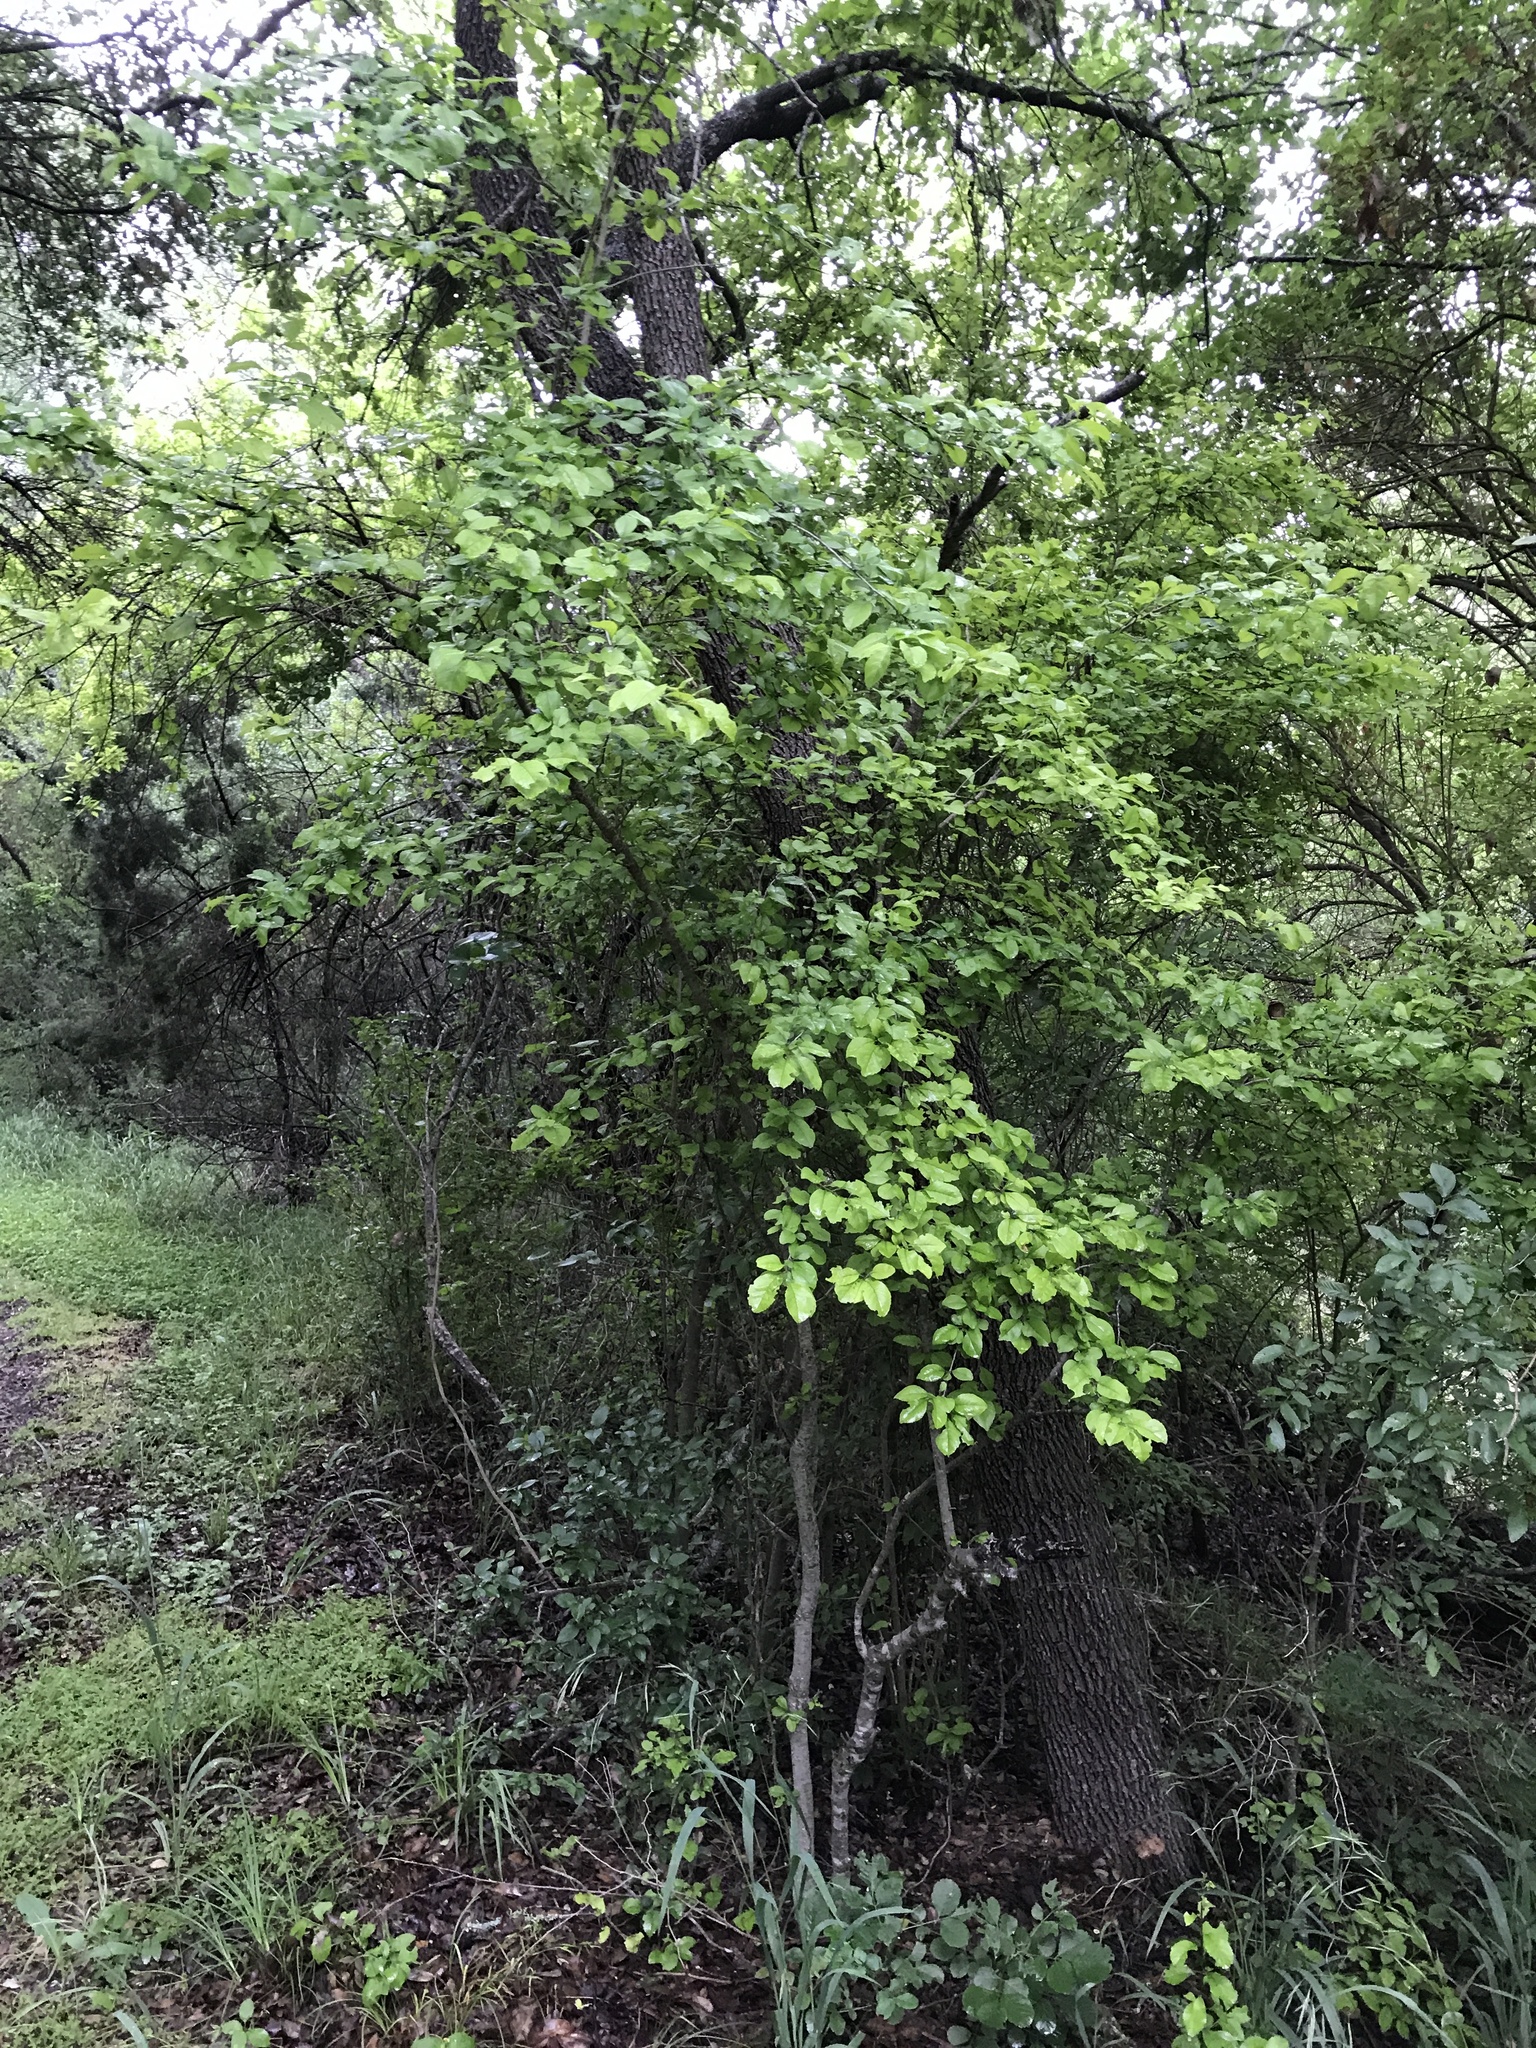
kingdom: Plantae
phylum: Tracheophyta
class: Magnoliopsida
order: Aquifoliales
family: Aquifoliaceae
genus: Ilex
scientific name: Ilex decidua
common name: Possum-haw
